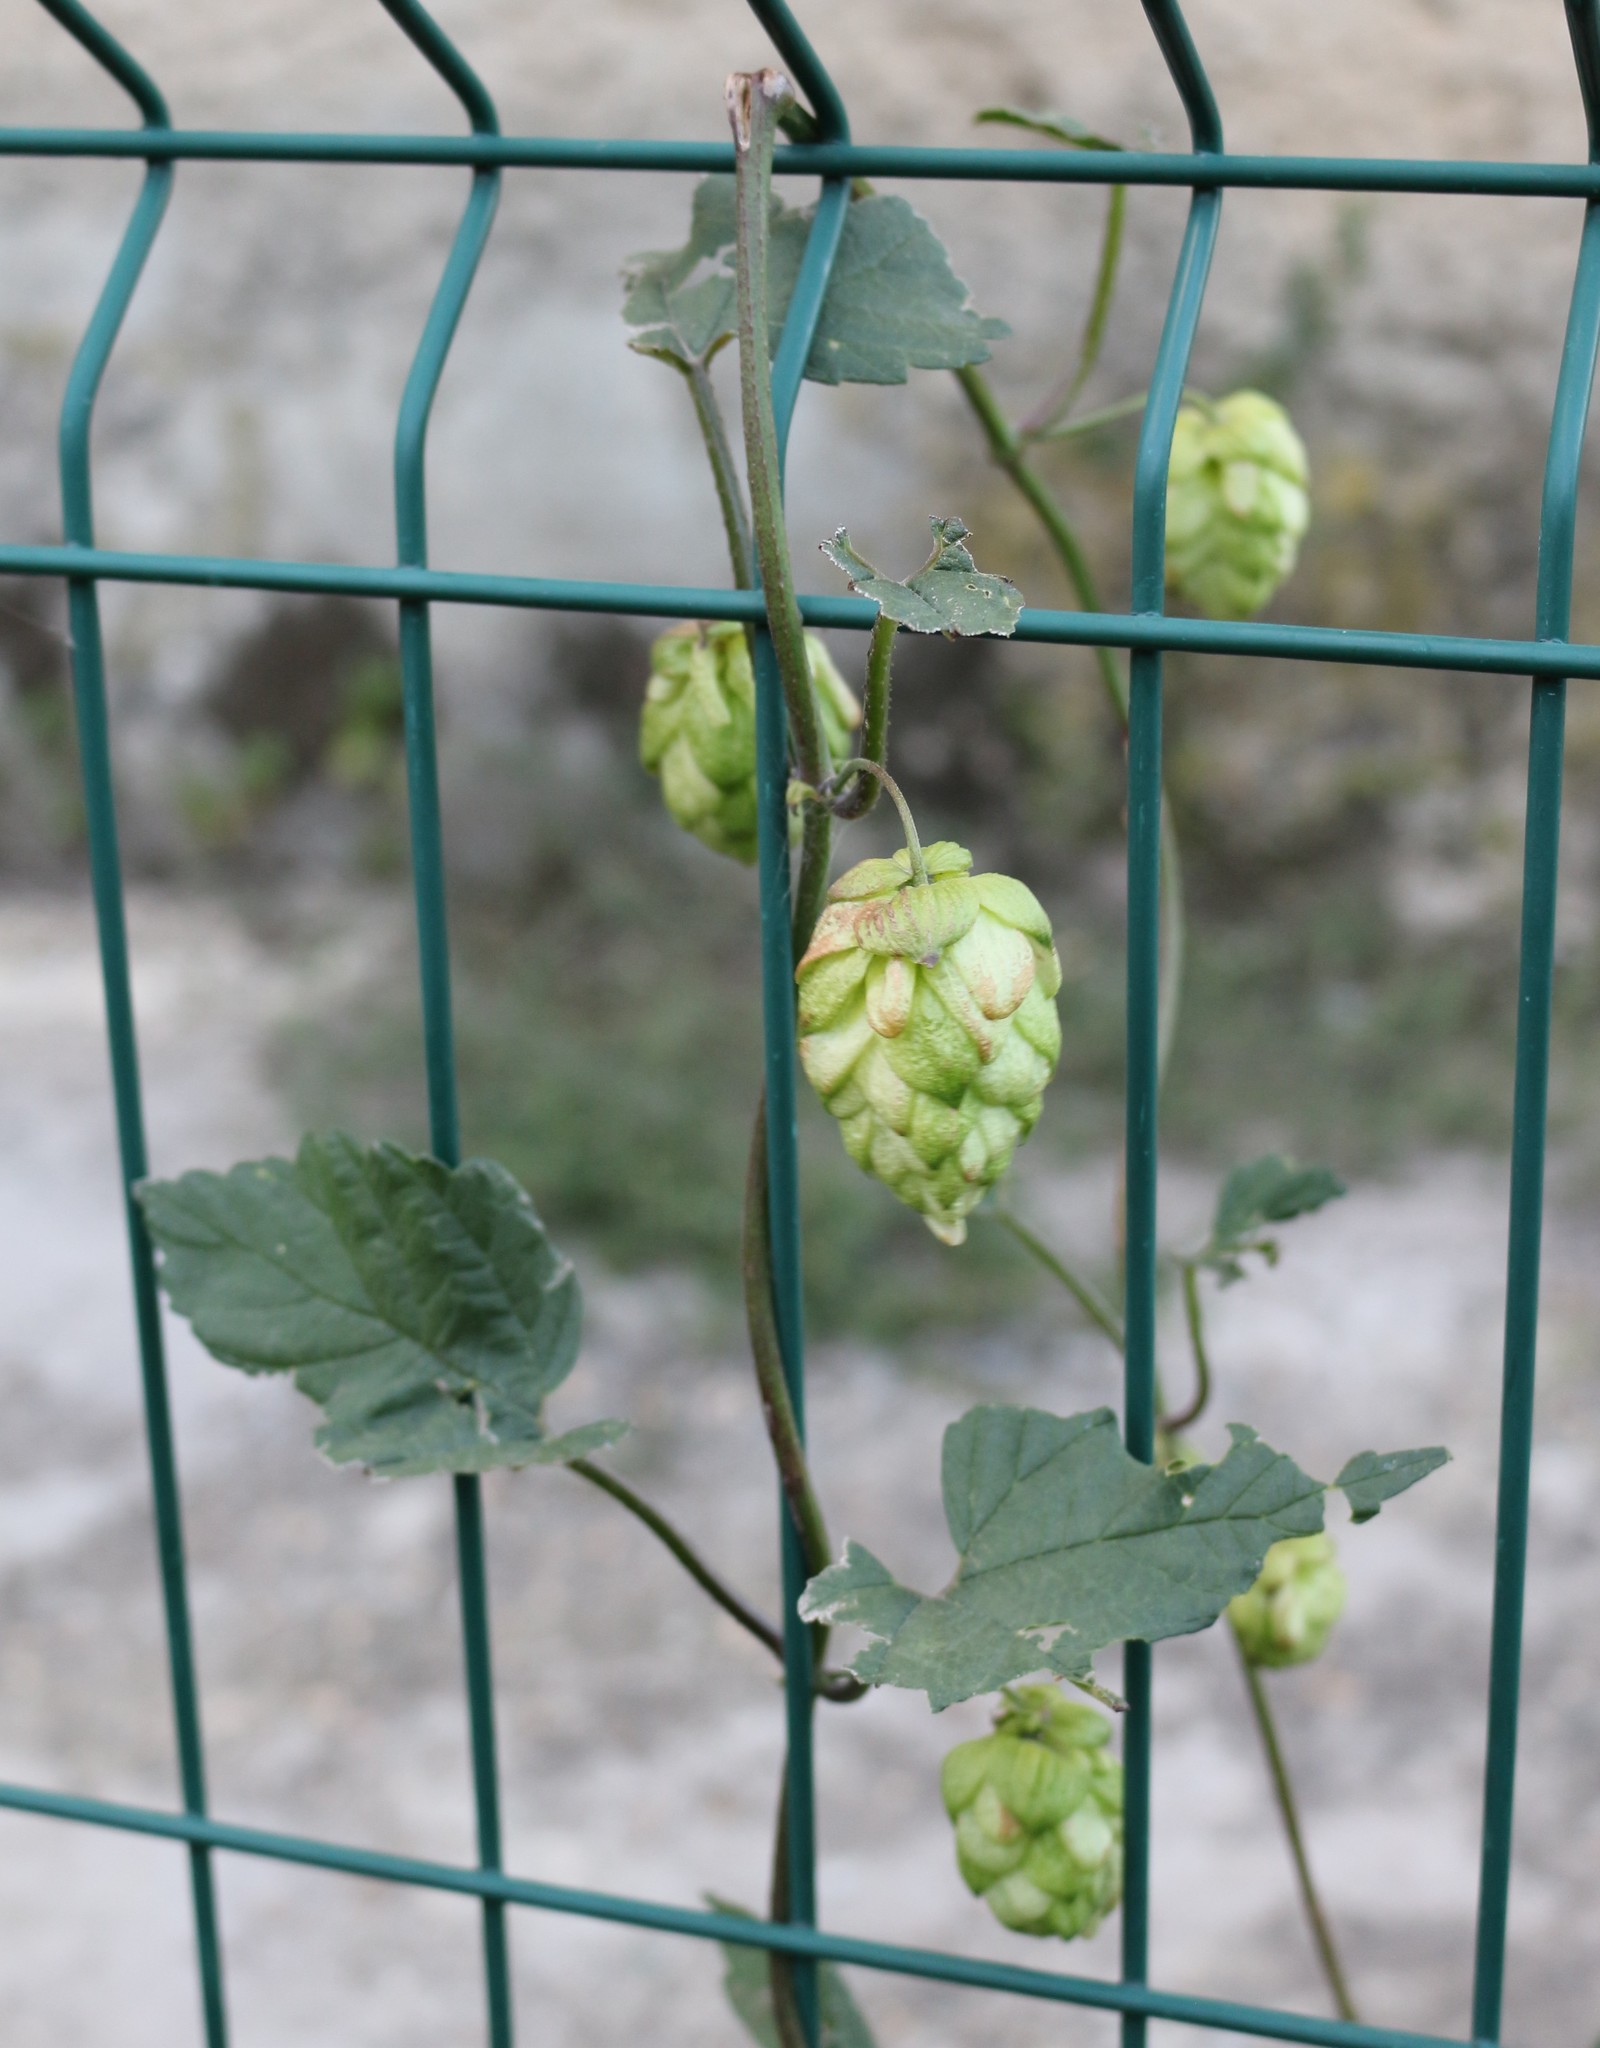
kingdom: Plantae
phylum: Tracheophyta
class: Magnoliopsida
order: Rosales
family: Cannabaceae
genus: Humulus
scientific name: Humulus lupulus
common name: Hop
